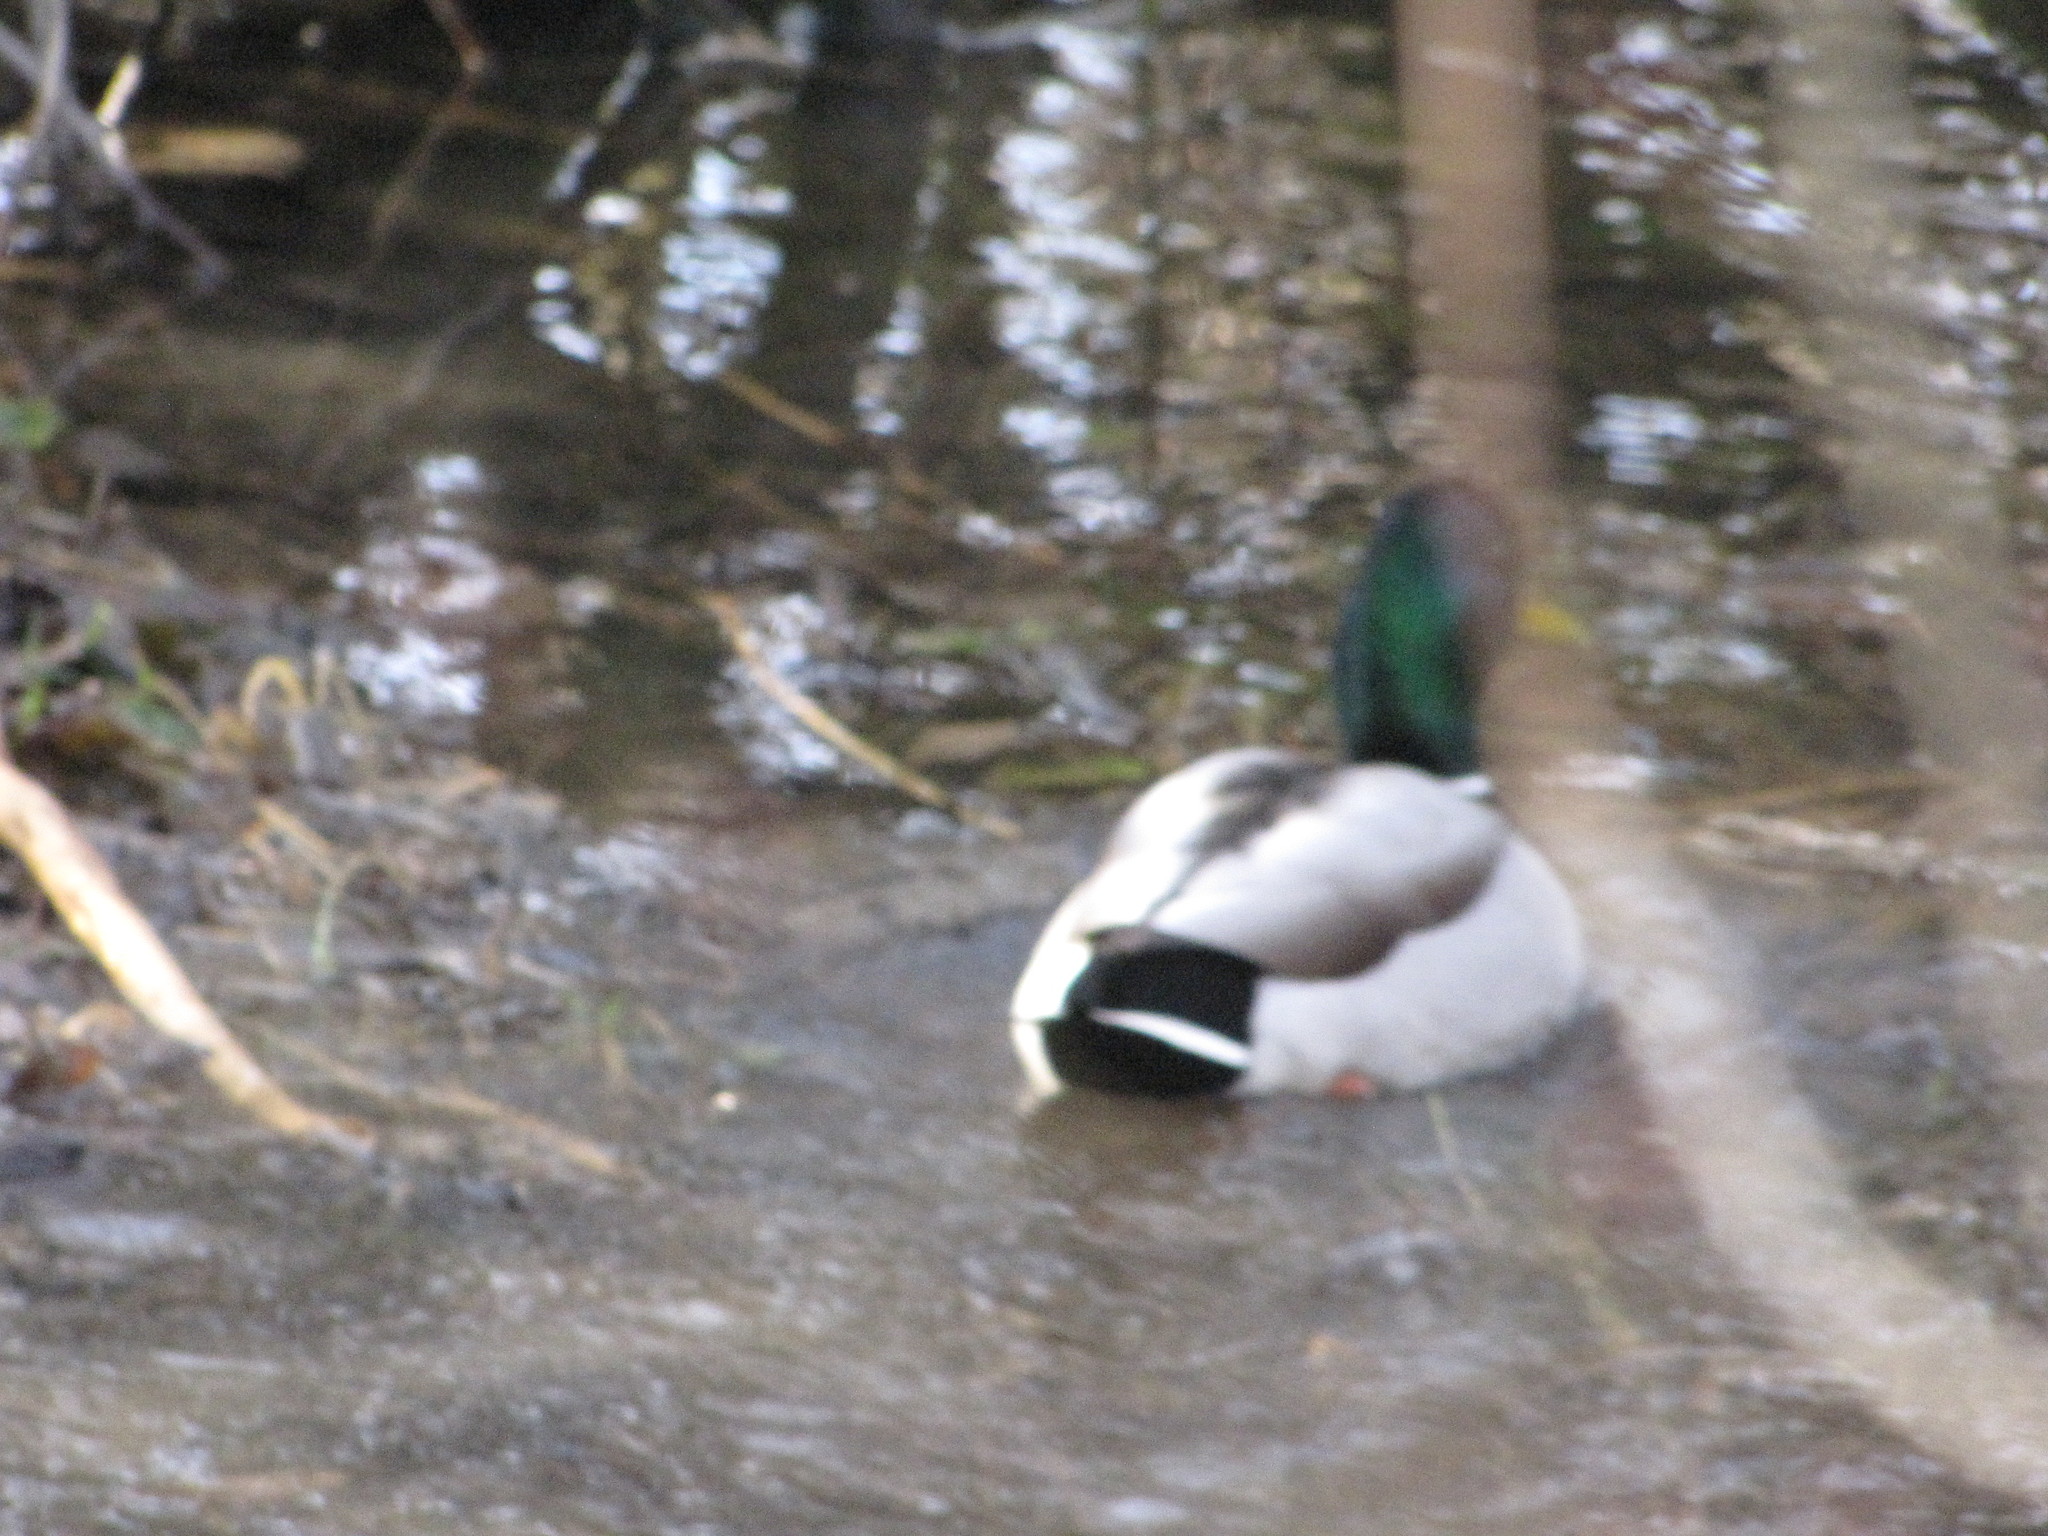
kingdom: Animalia
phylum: Chordata
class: Aves
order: Anseriformes
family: Anatidae
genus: Anas
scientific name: Anas platyrhynchos
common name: Mallard
